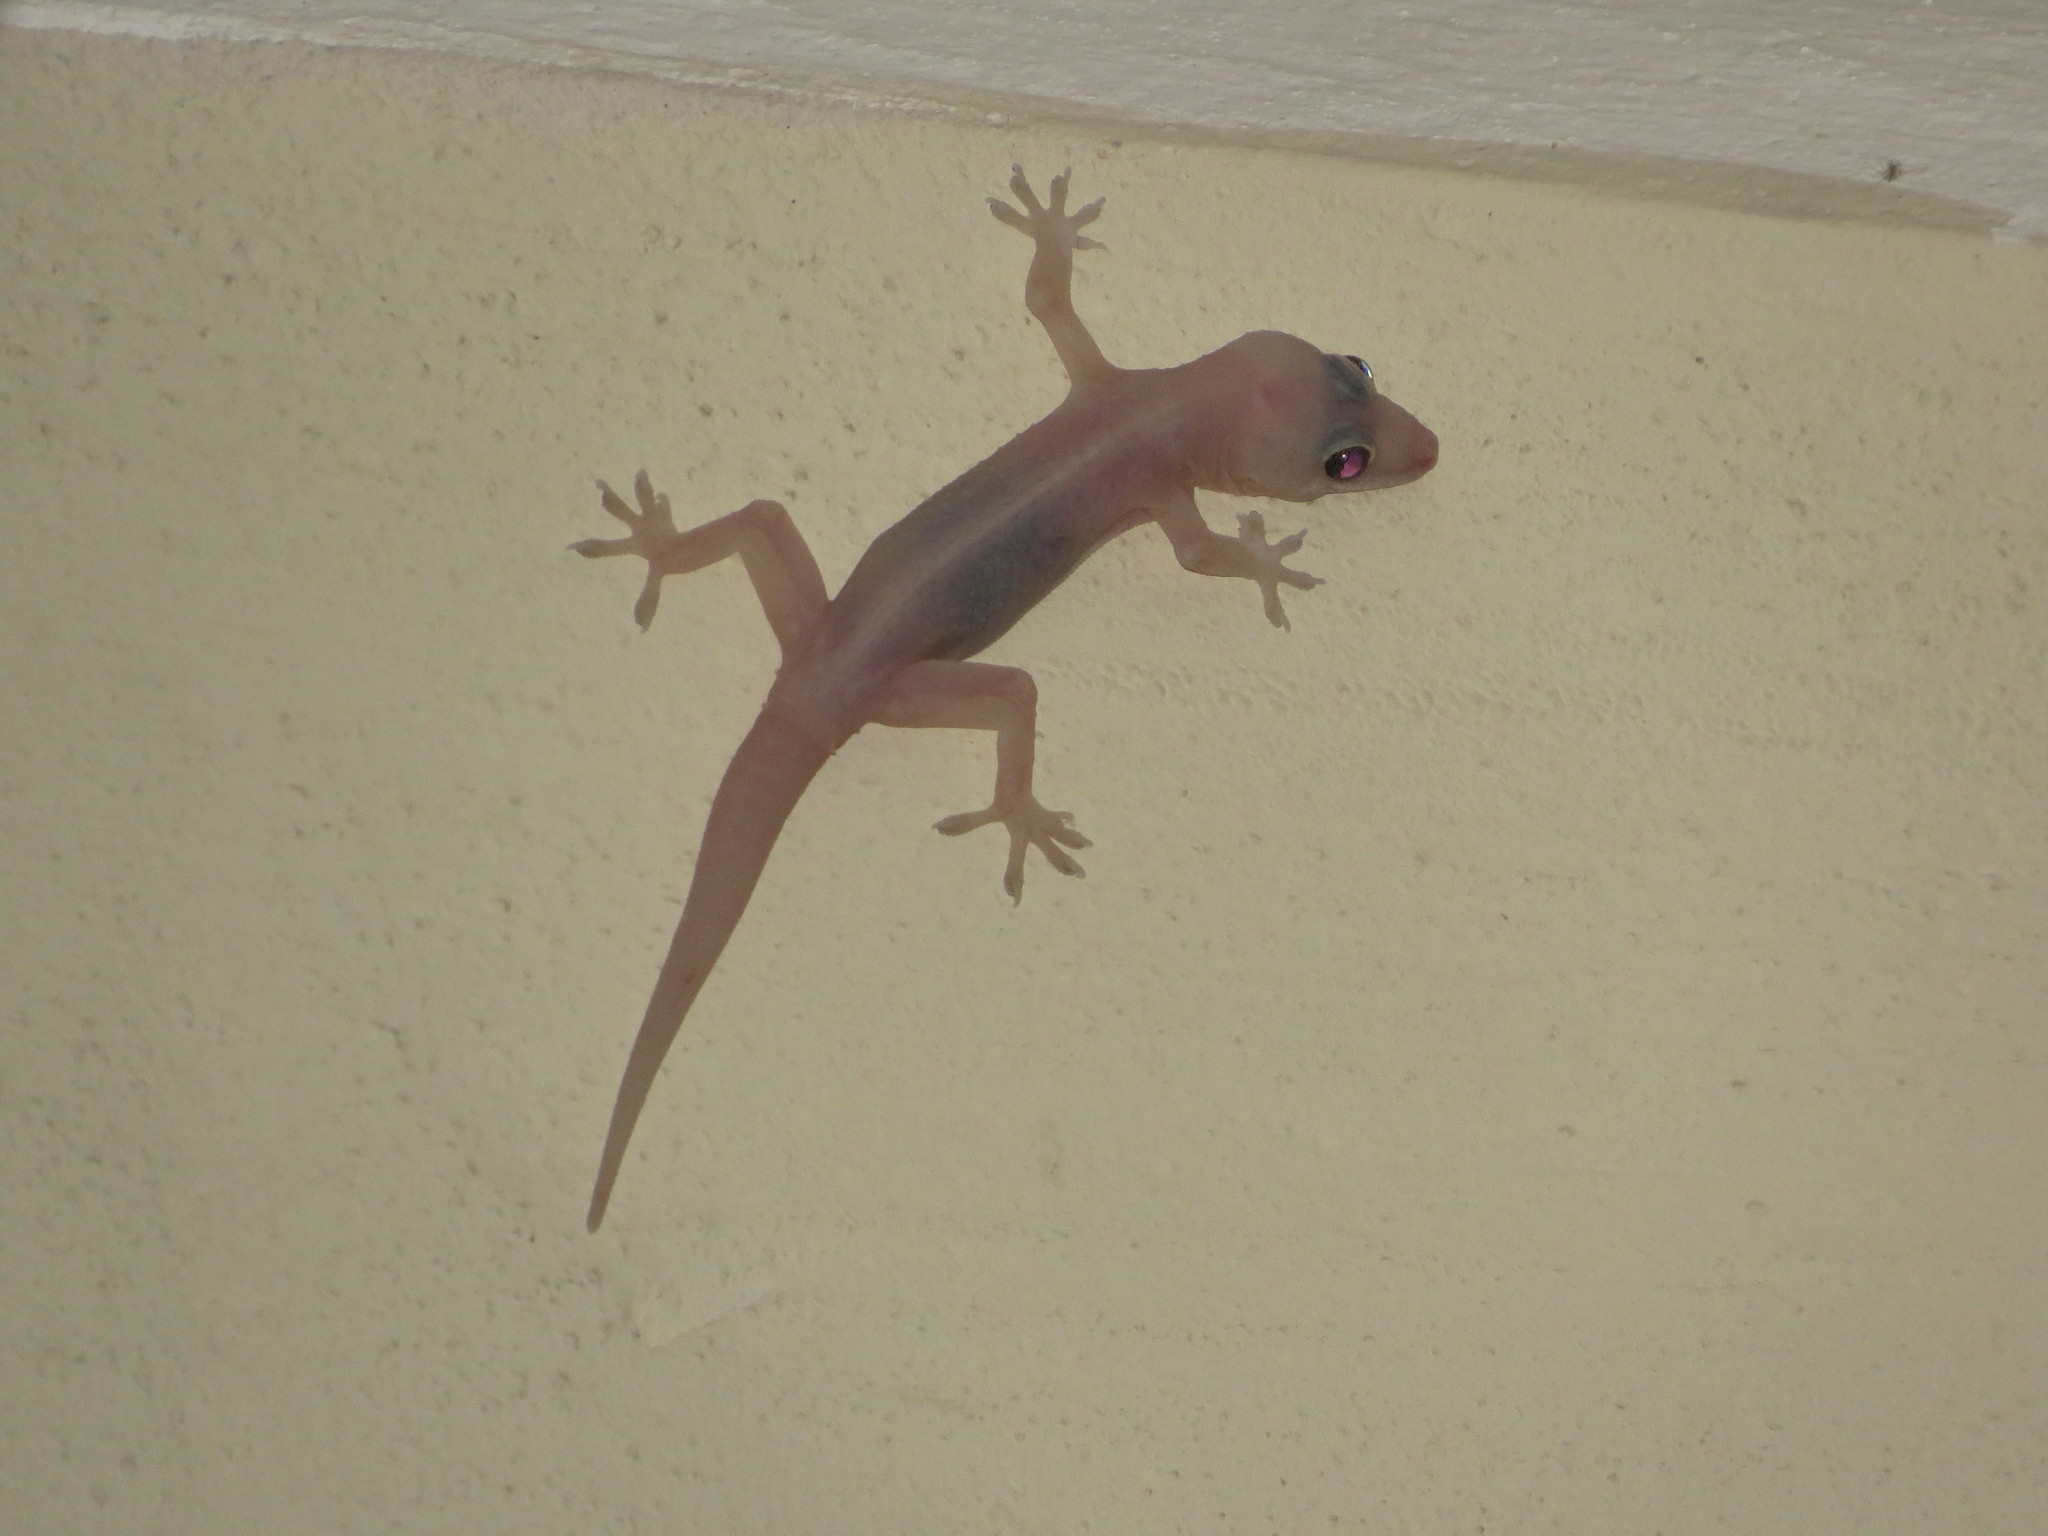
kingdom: Animalia
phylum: Chordata
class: Squamata
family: Gekkonidae
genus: Hemidactylus
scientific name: Hemidactylus mabouia
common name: House gecko
